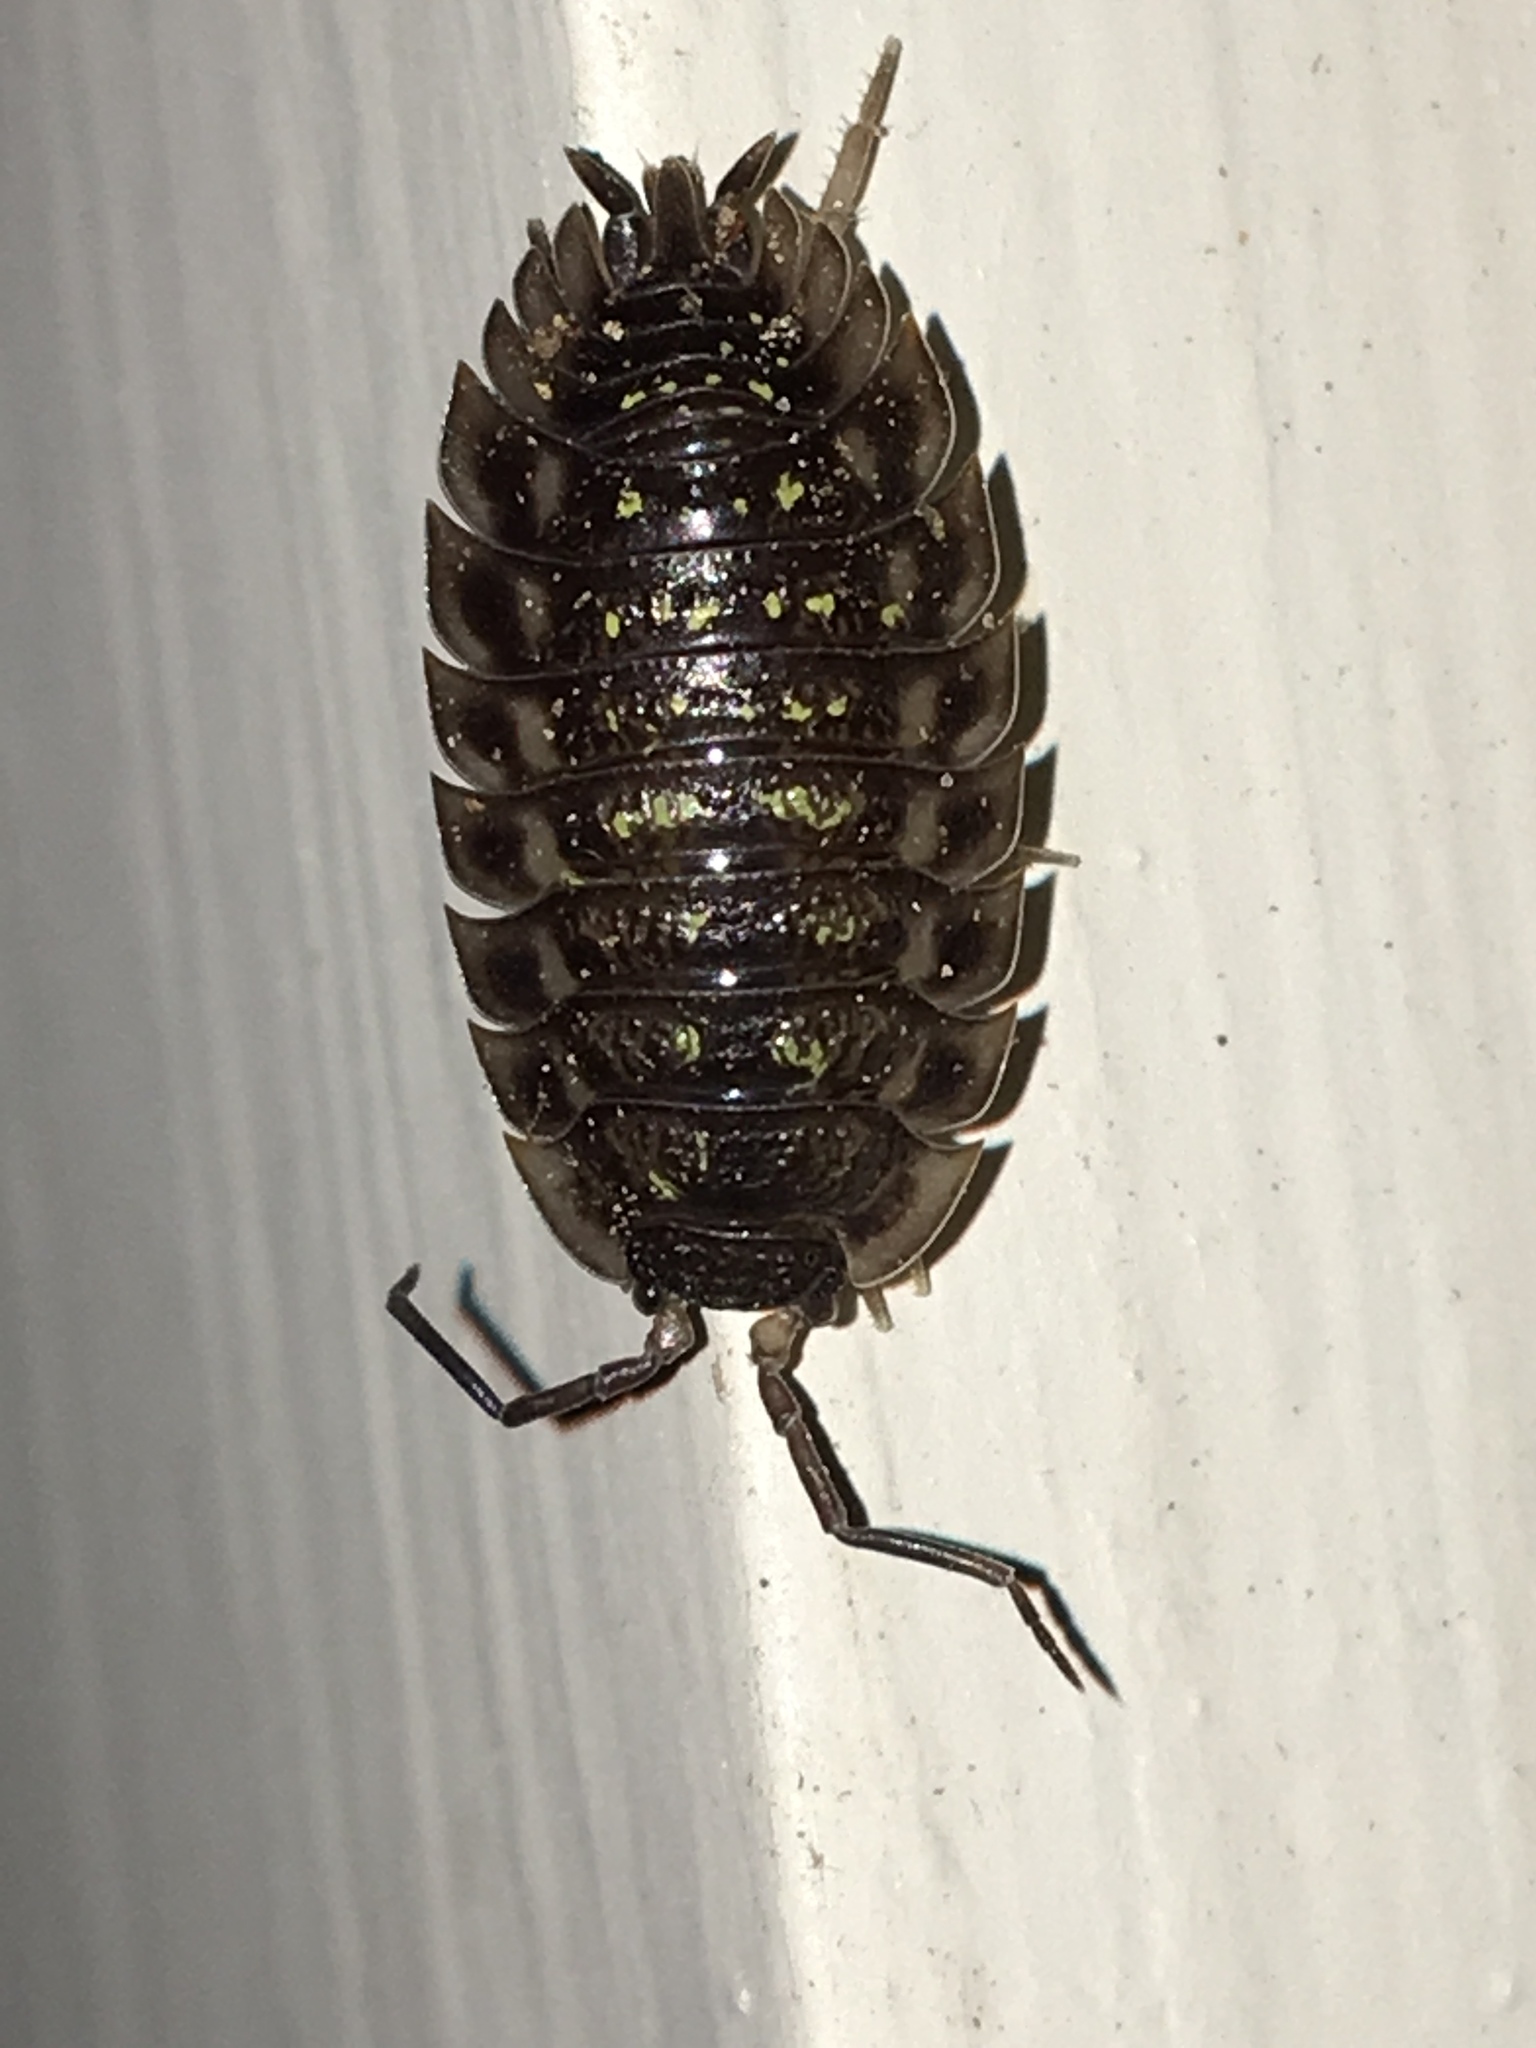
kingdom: Animalia
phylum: Arthropoda
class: Malacostraca
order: Isopoda
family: Oniscidae
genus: Oniscus
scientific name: Oniscus asellus
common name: Common shiny woodlouse
